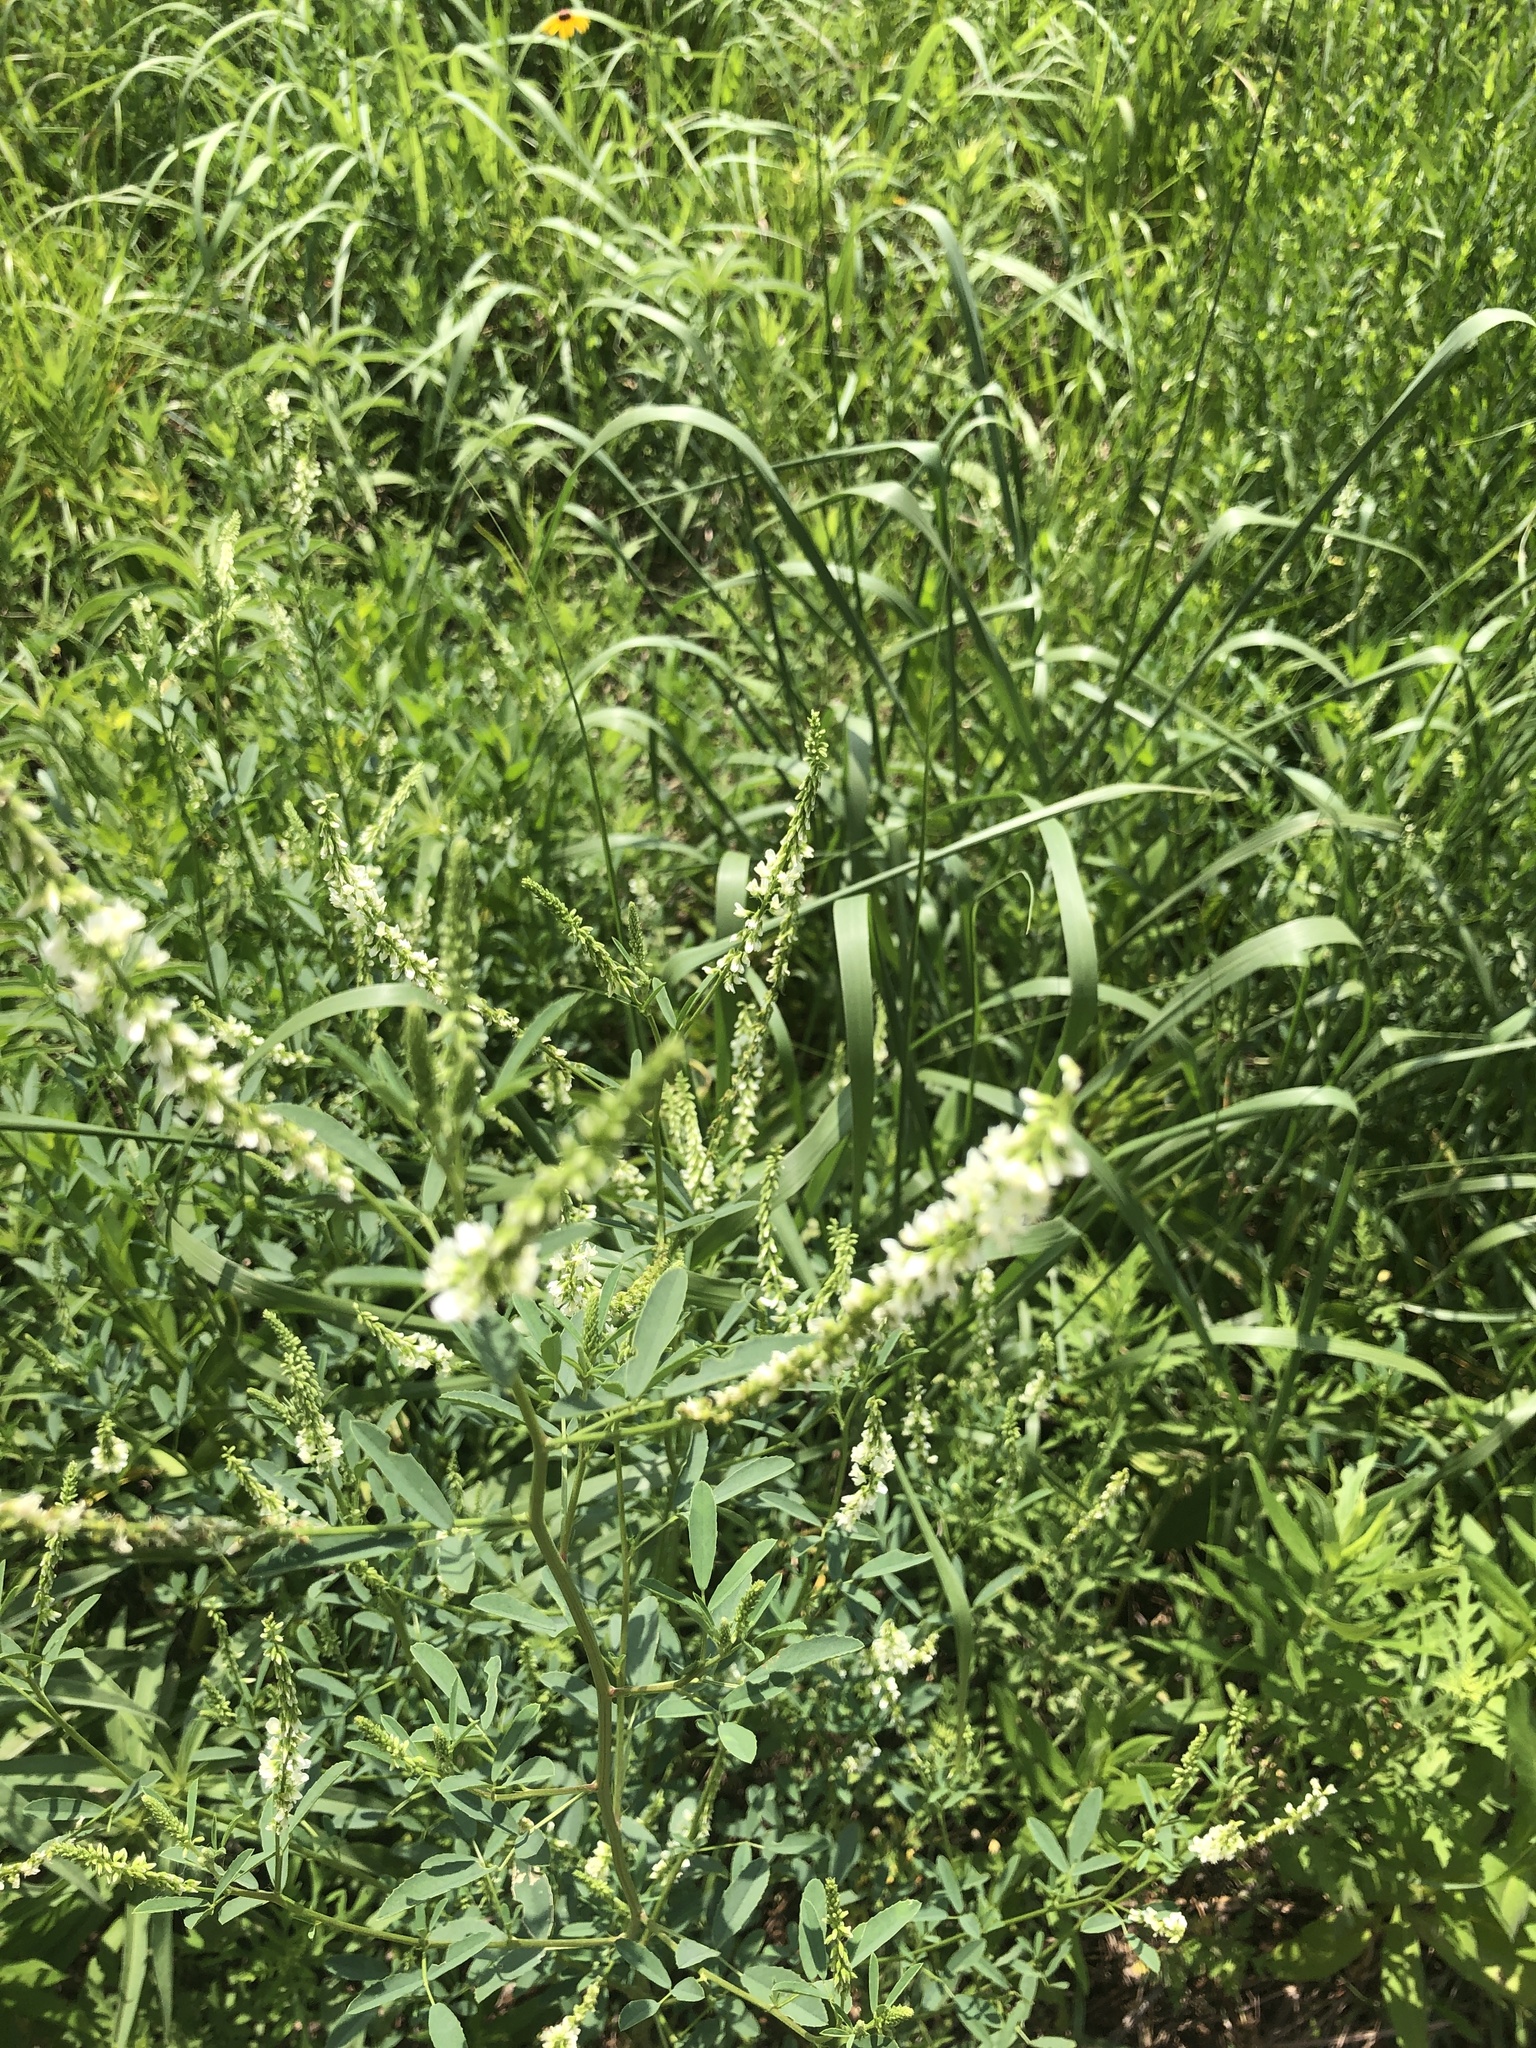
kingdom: Plantae
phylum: Tracheophyta
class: Magnoliopsida
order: Fabales
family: Fabaceae
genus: Melilotus
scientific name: Melilotus albus
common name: White melilot
